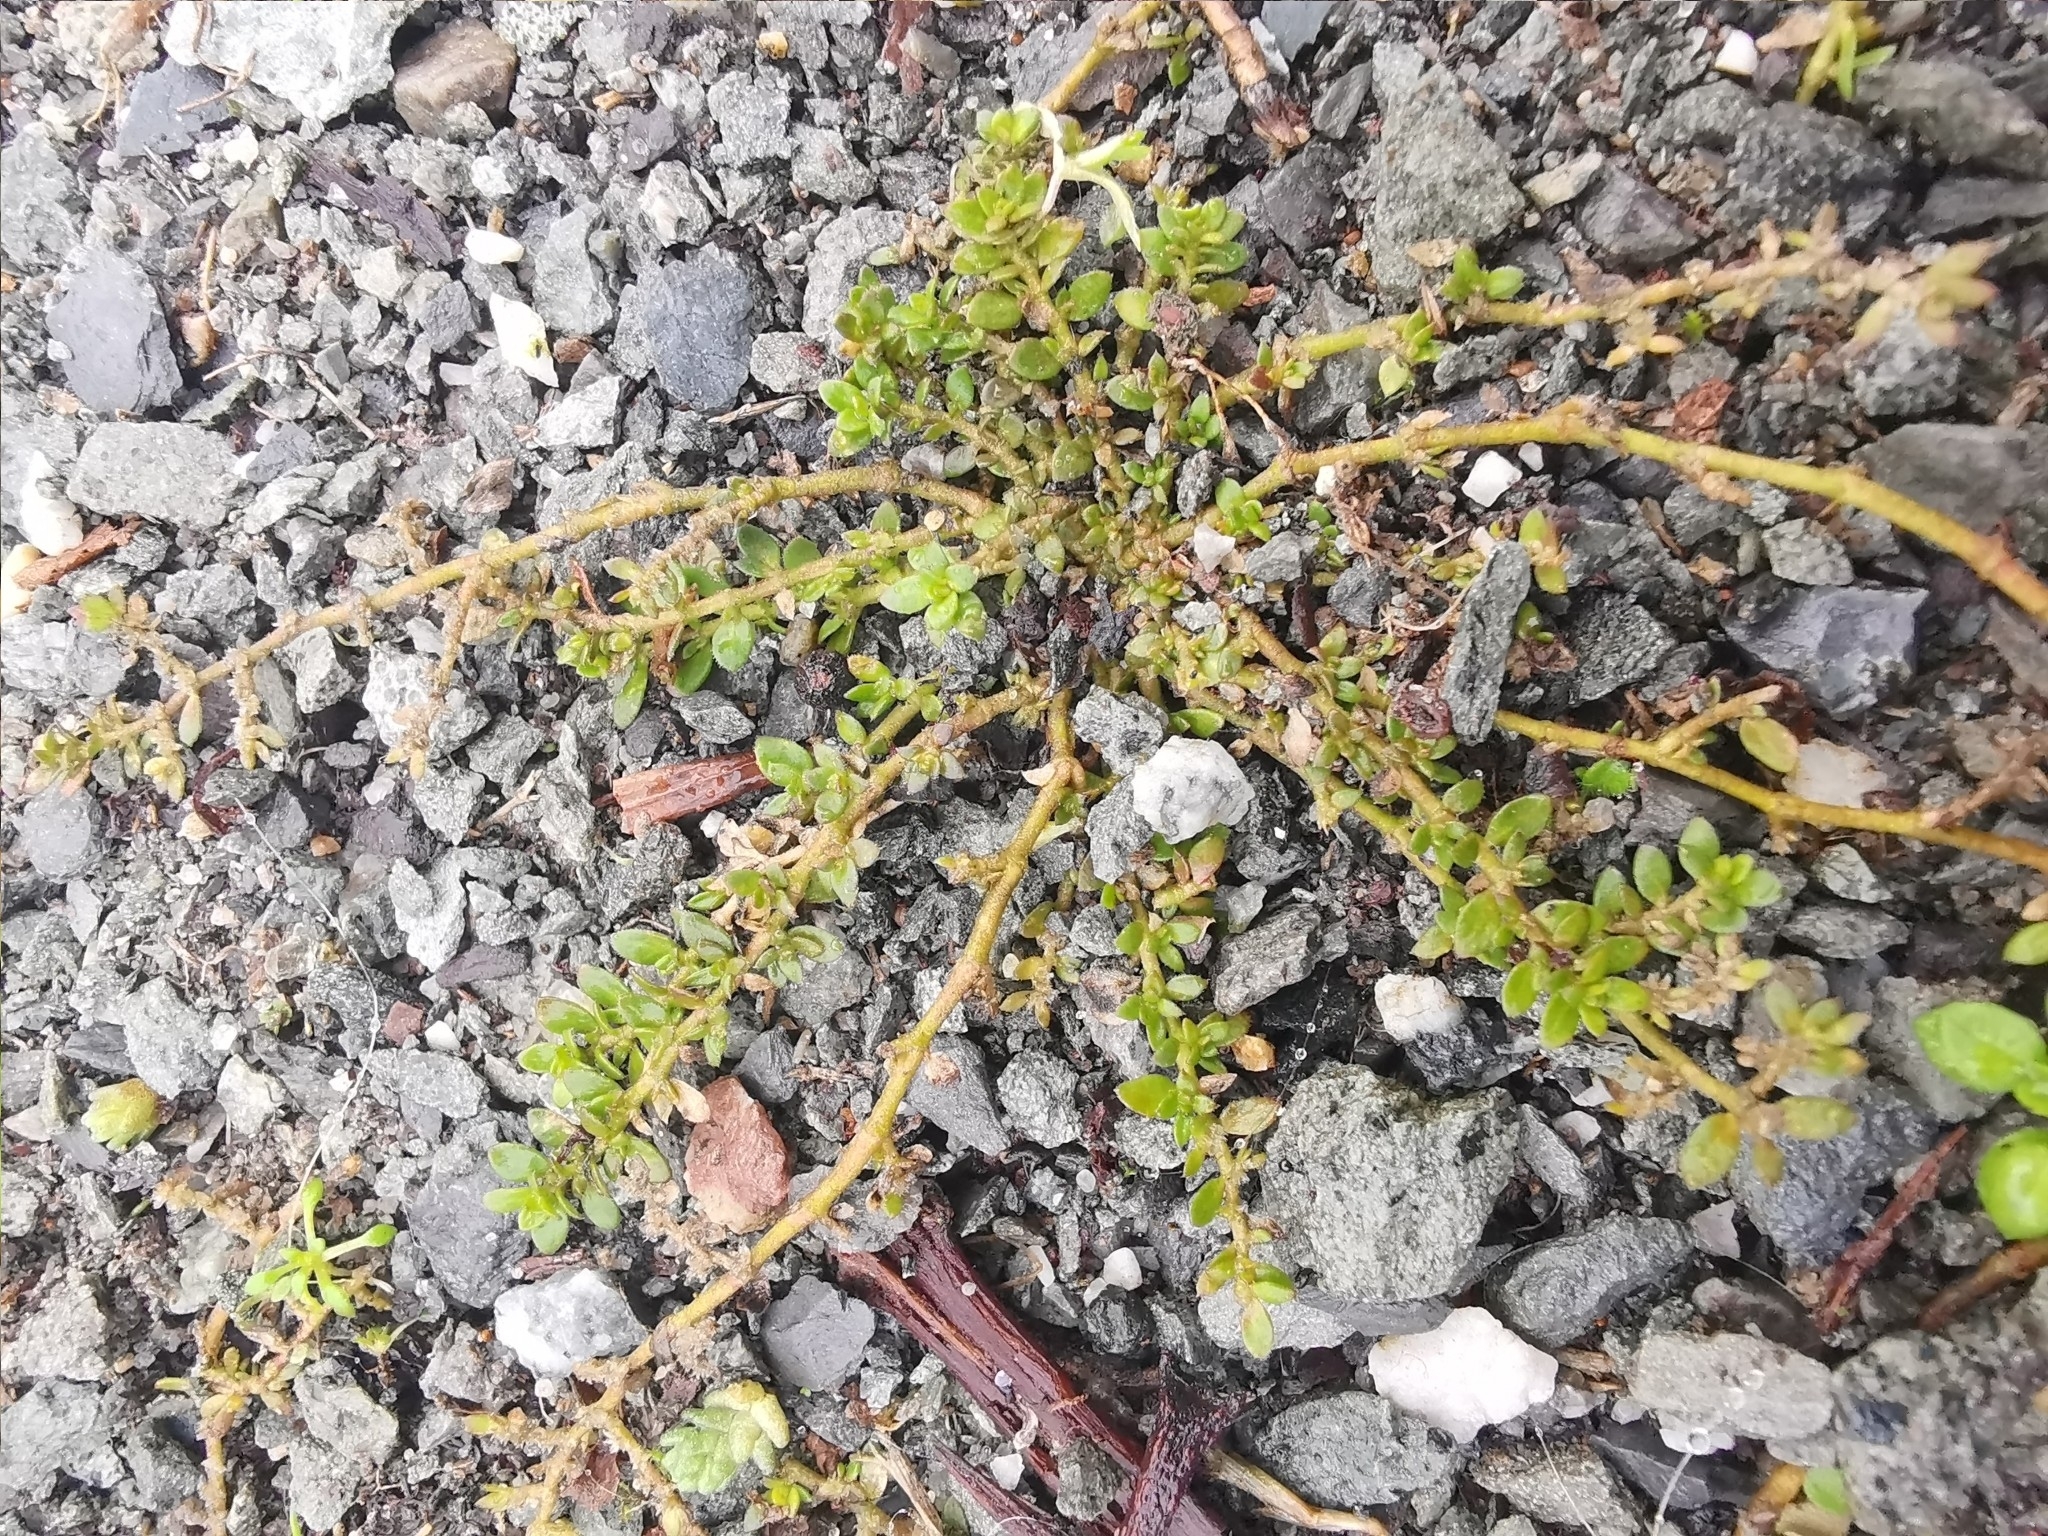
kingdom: Plantae
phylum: Tracheophyta
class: Magnoliopsida
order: Caryophyllales
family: Caryophyllaceae
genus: Herniaria
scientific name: Herniaria glabra
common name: Smooth rupturewort
